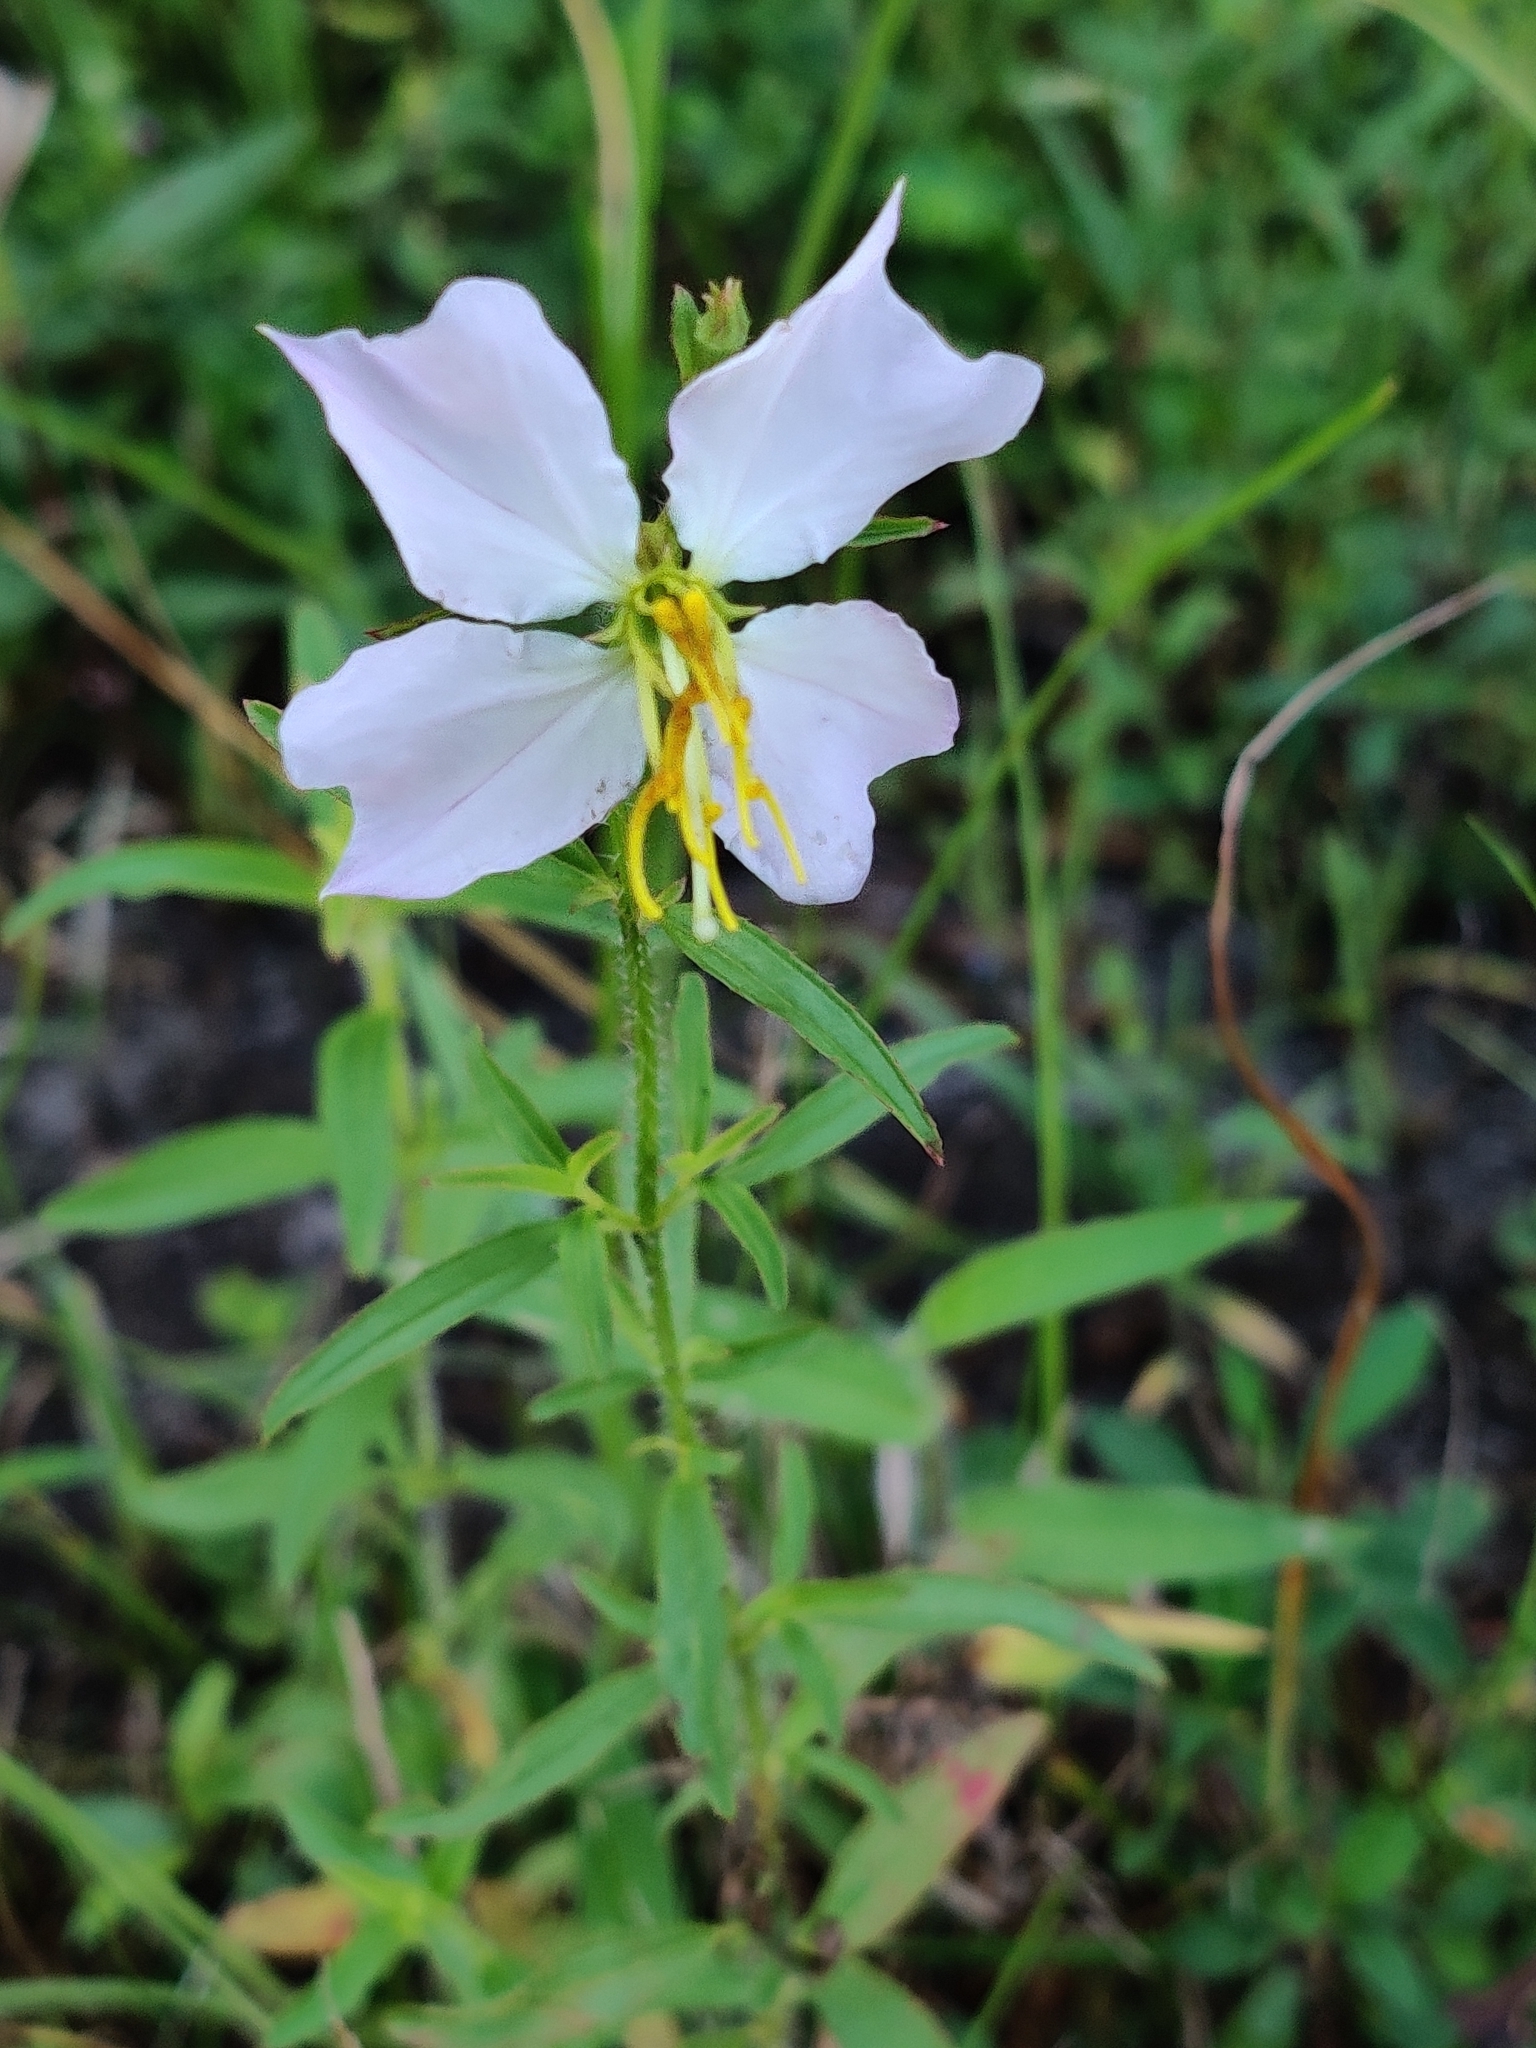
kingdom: Plantae
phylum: Tracheophyta
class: Magnoliopsida
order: Myrtales
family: Melastomataceae
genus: Rhexia
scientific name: Rhexia mariana
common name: Dull meadow-pitcher
